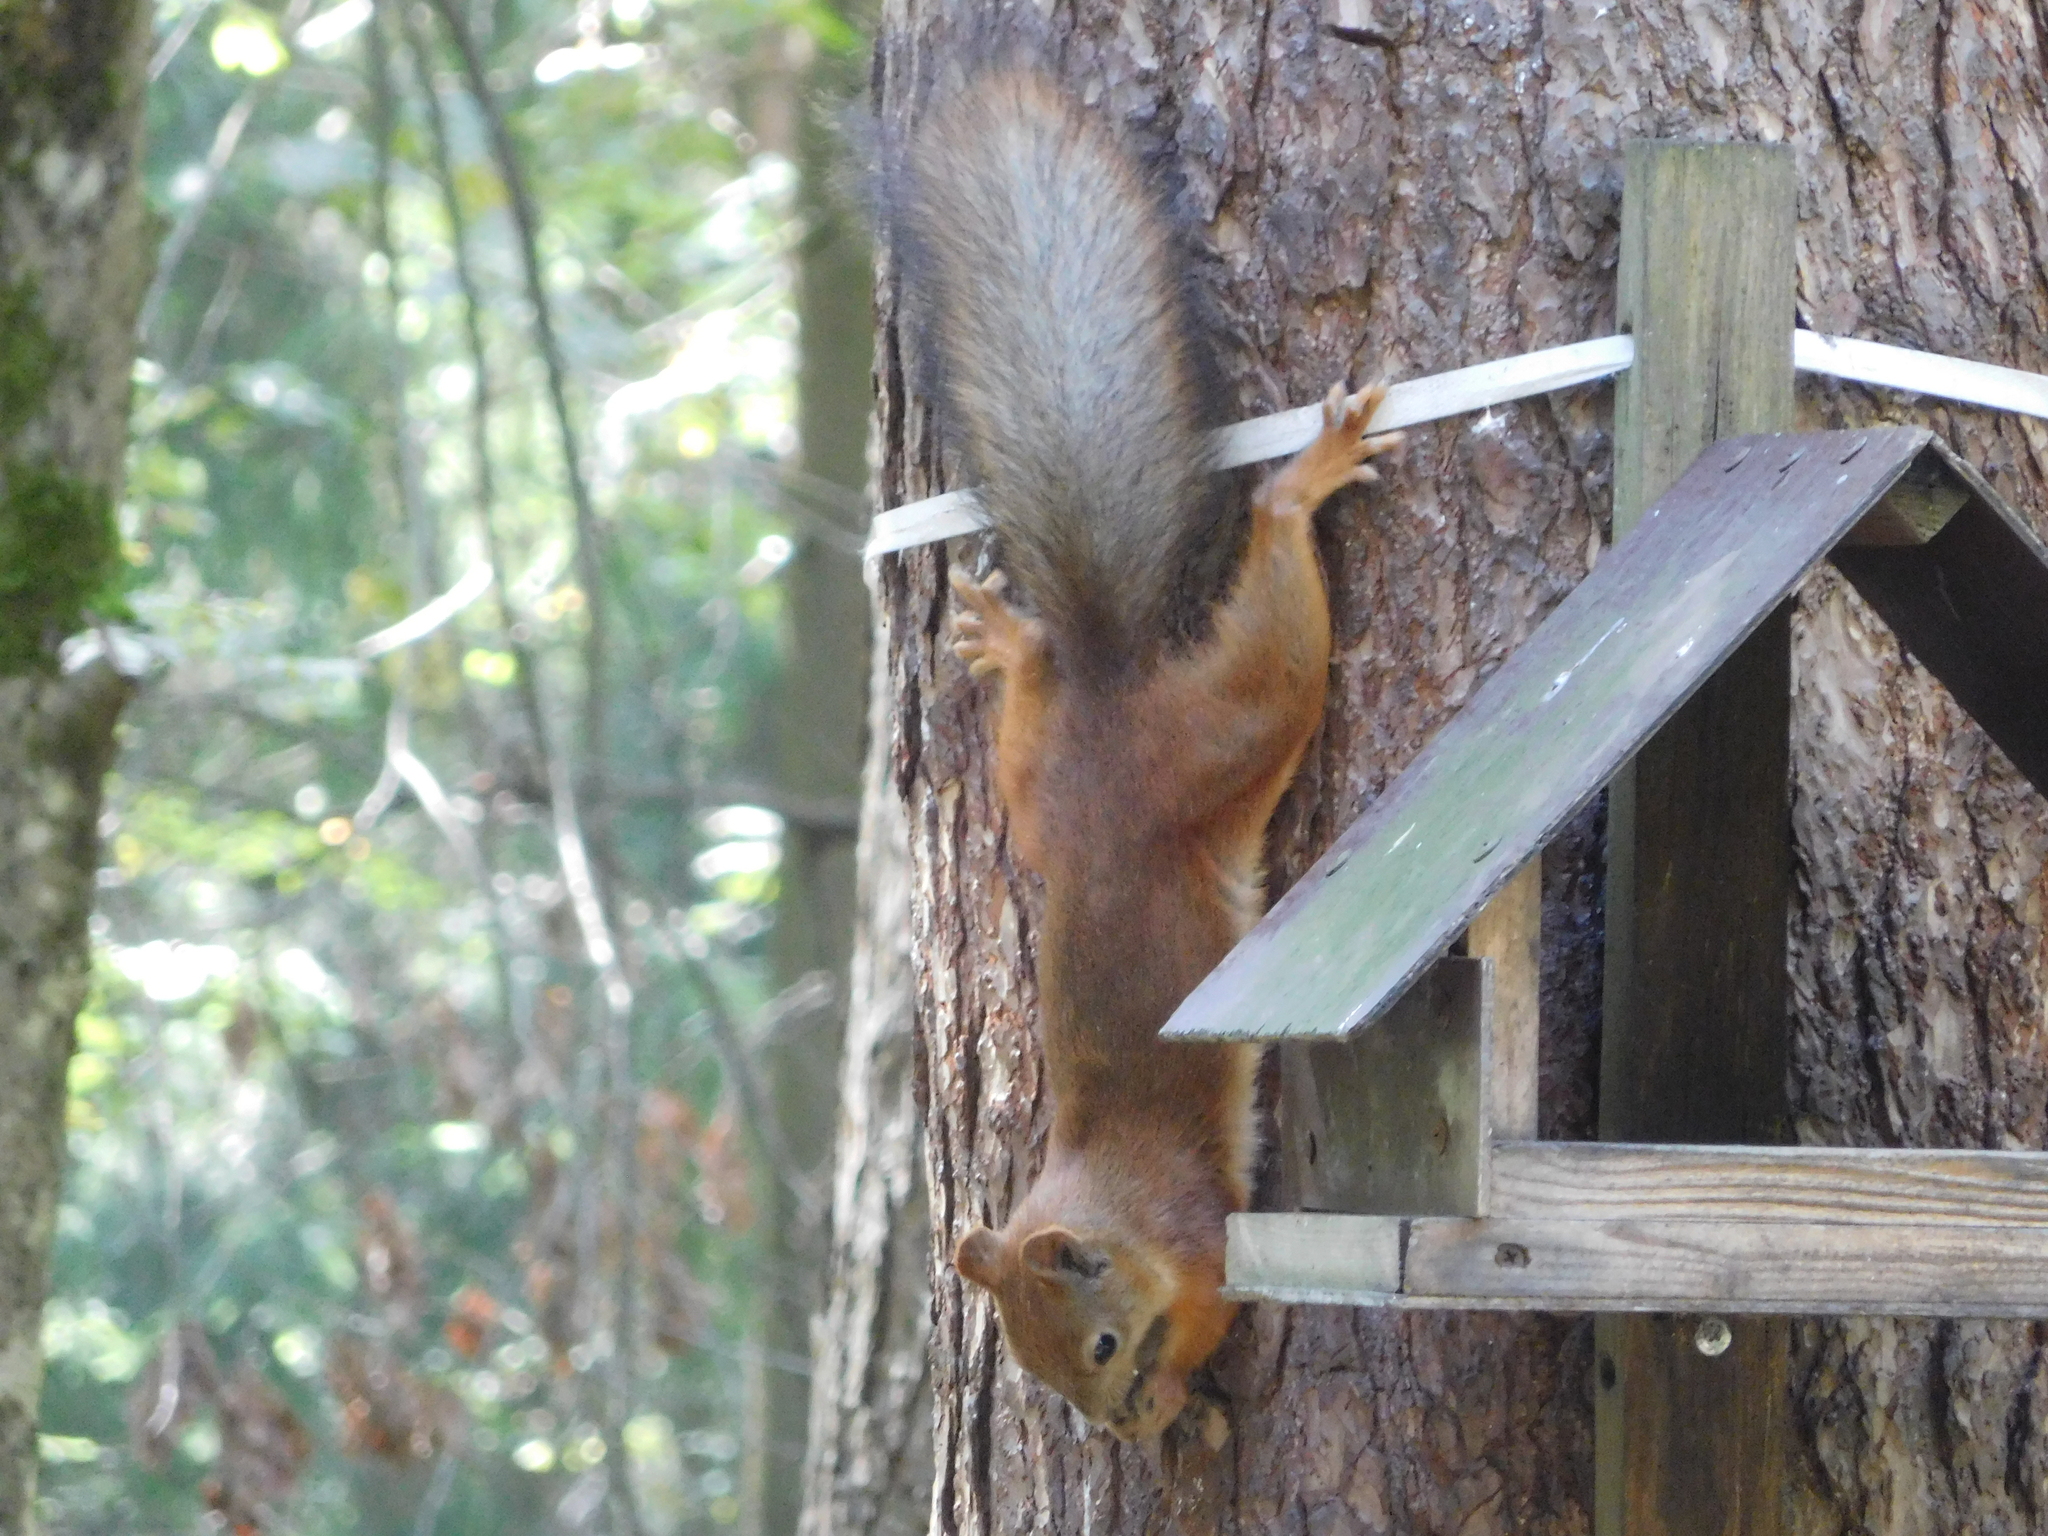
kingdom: Animalia
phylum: Chordata
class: Mammalia
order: Rodentia
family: Sciuridae
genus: Sciurus
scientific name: Sciurus vulgaris
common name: Eurasian red squirrel
